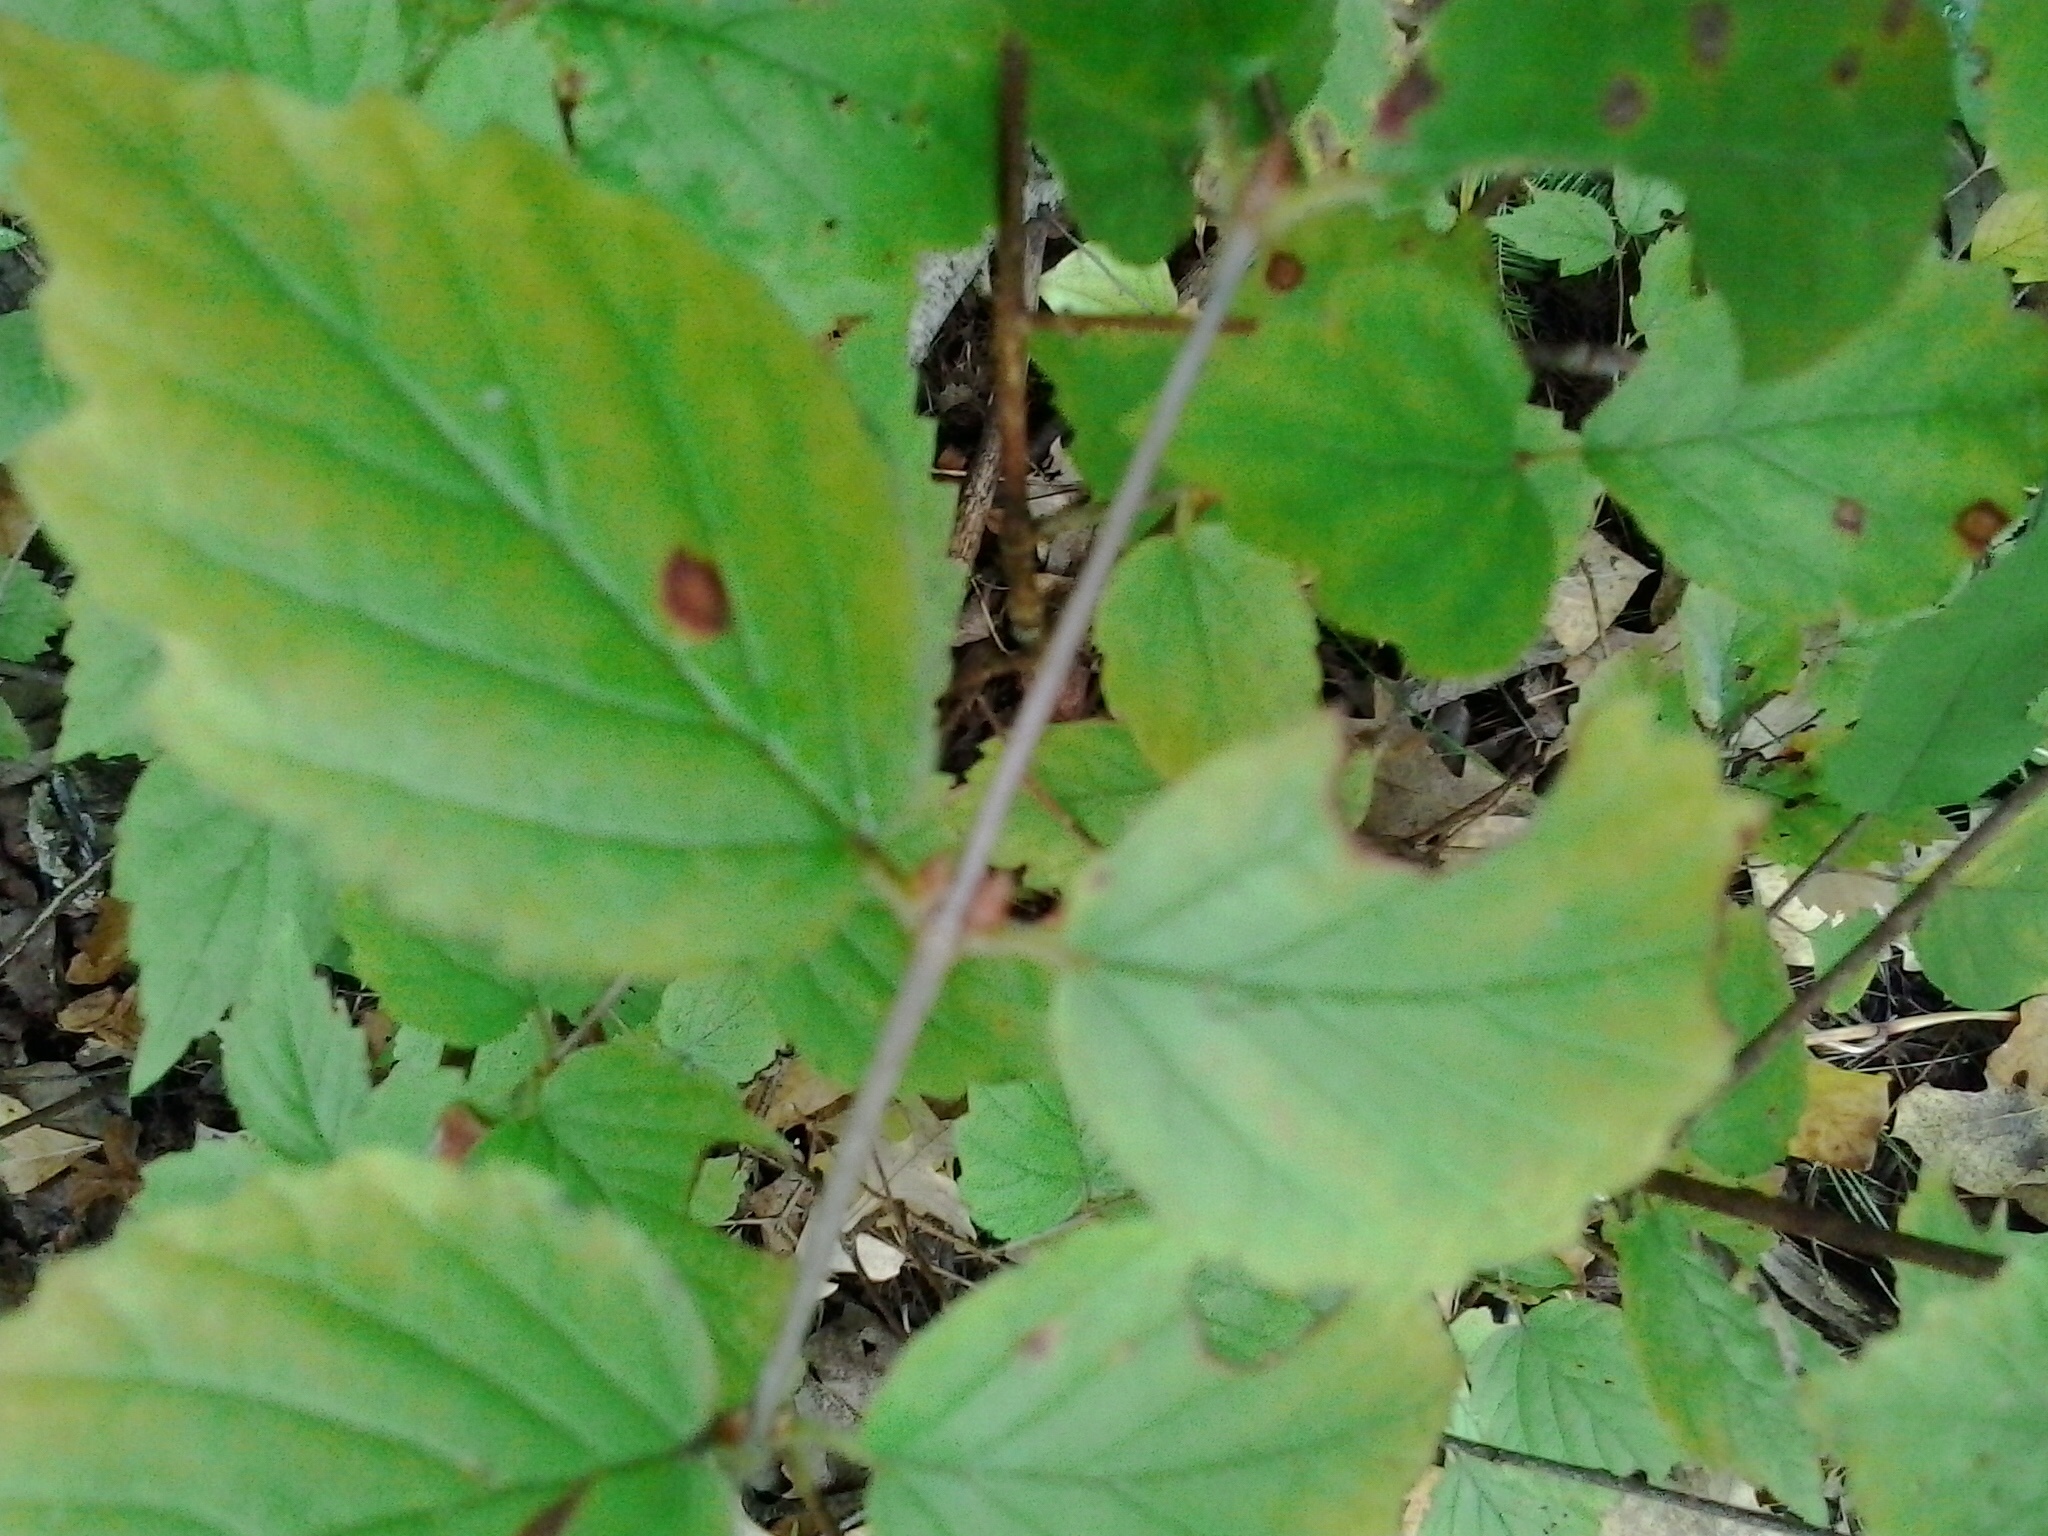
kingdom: Plantae
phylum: Tracheophyta
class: Magnoliopsida
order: Dipsacales
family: Viburnaceae
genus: Viburnum
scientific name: Viburnum rafinesqueanum
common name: Downy arrow-wood
